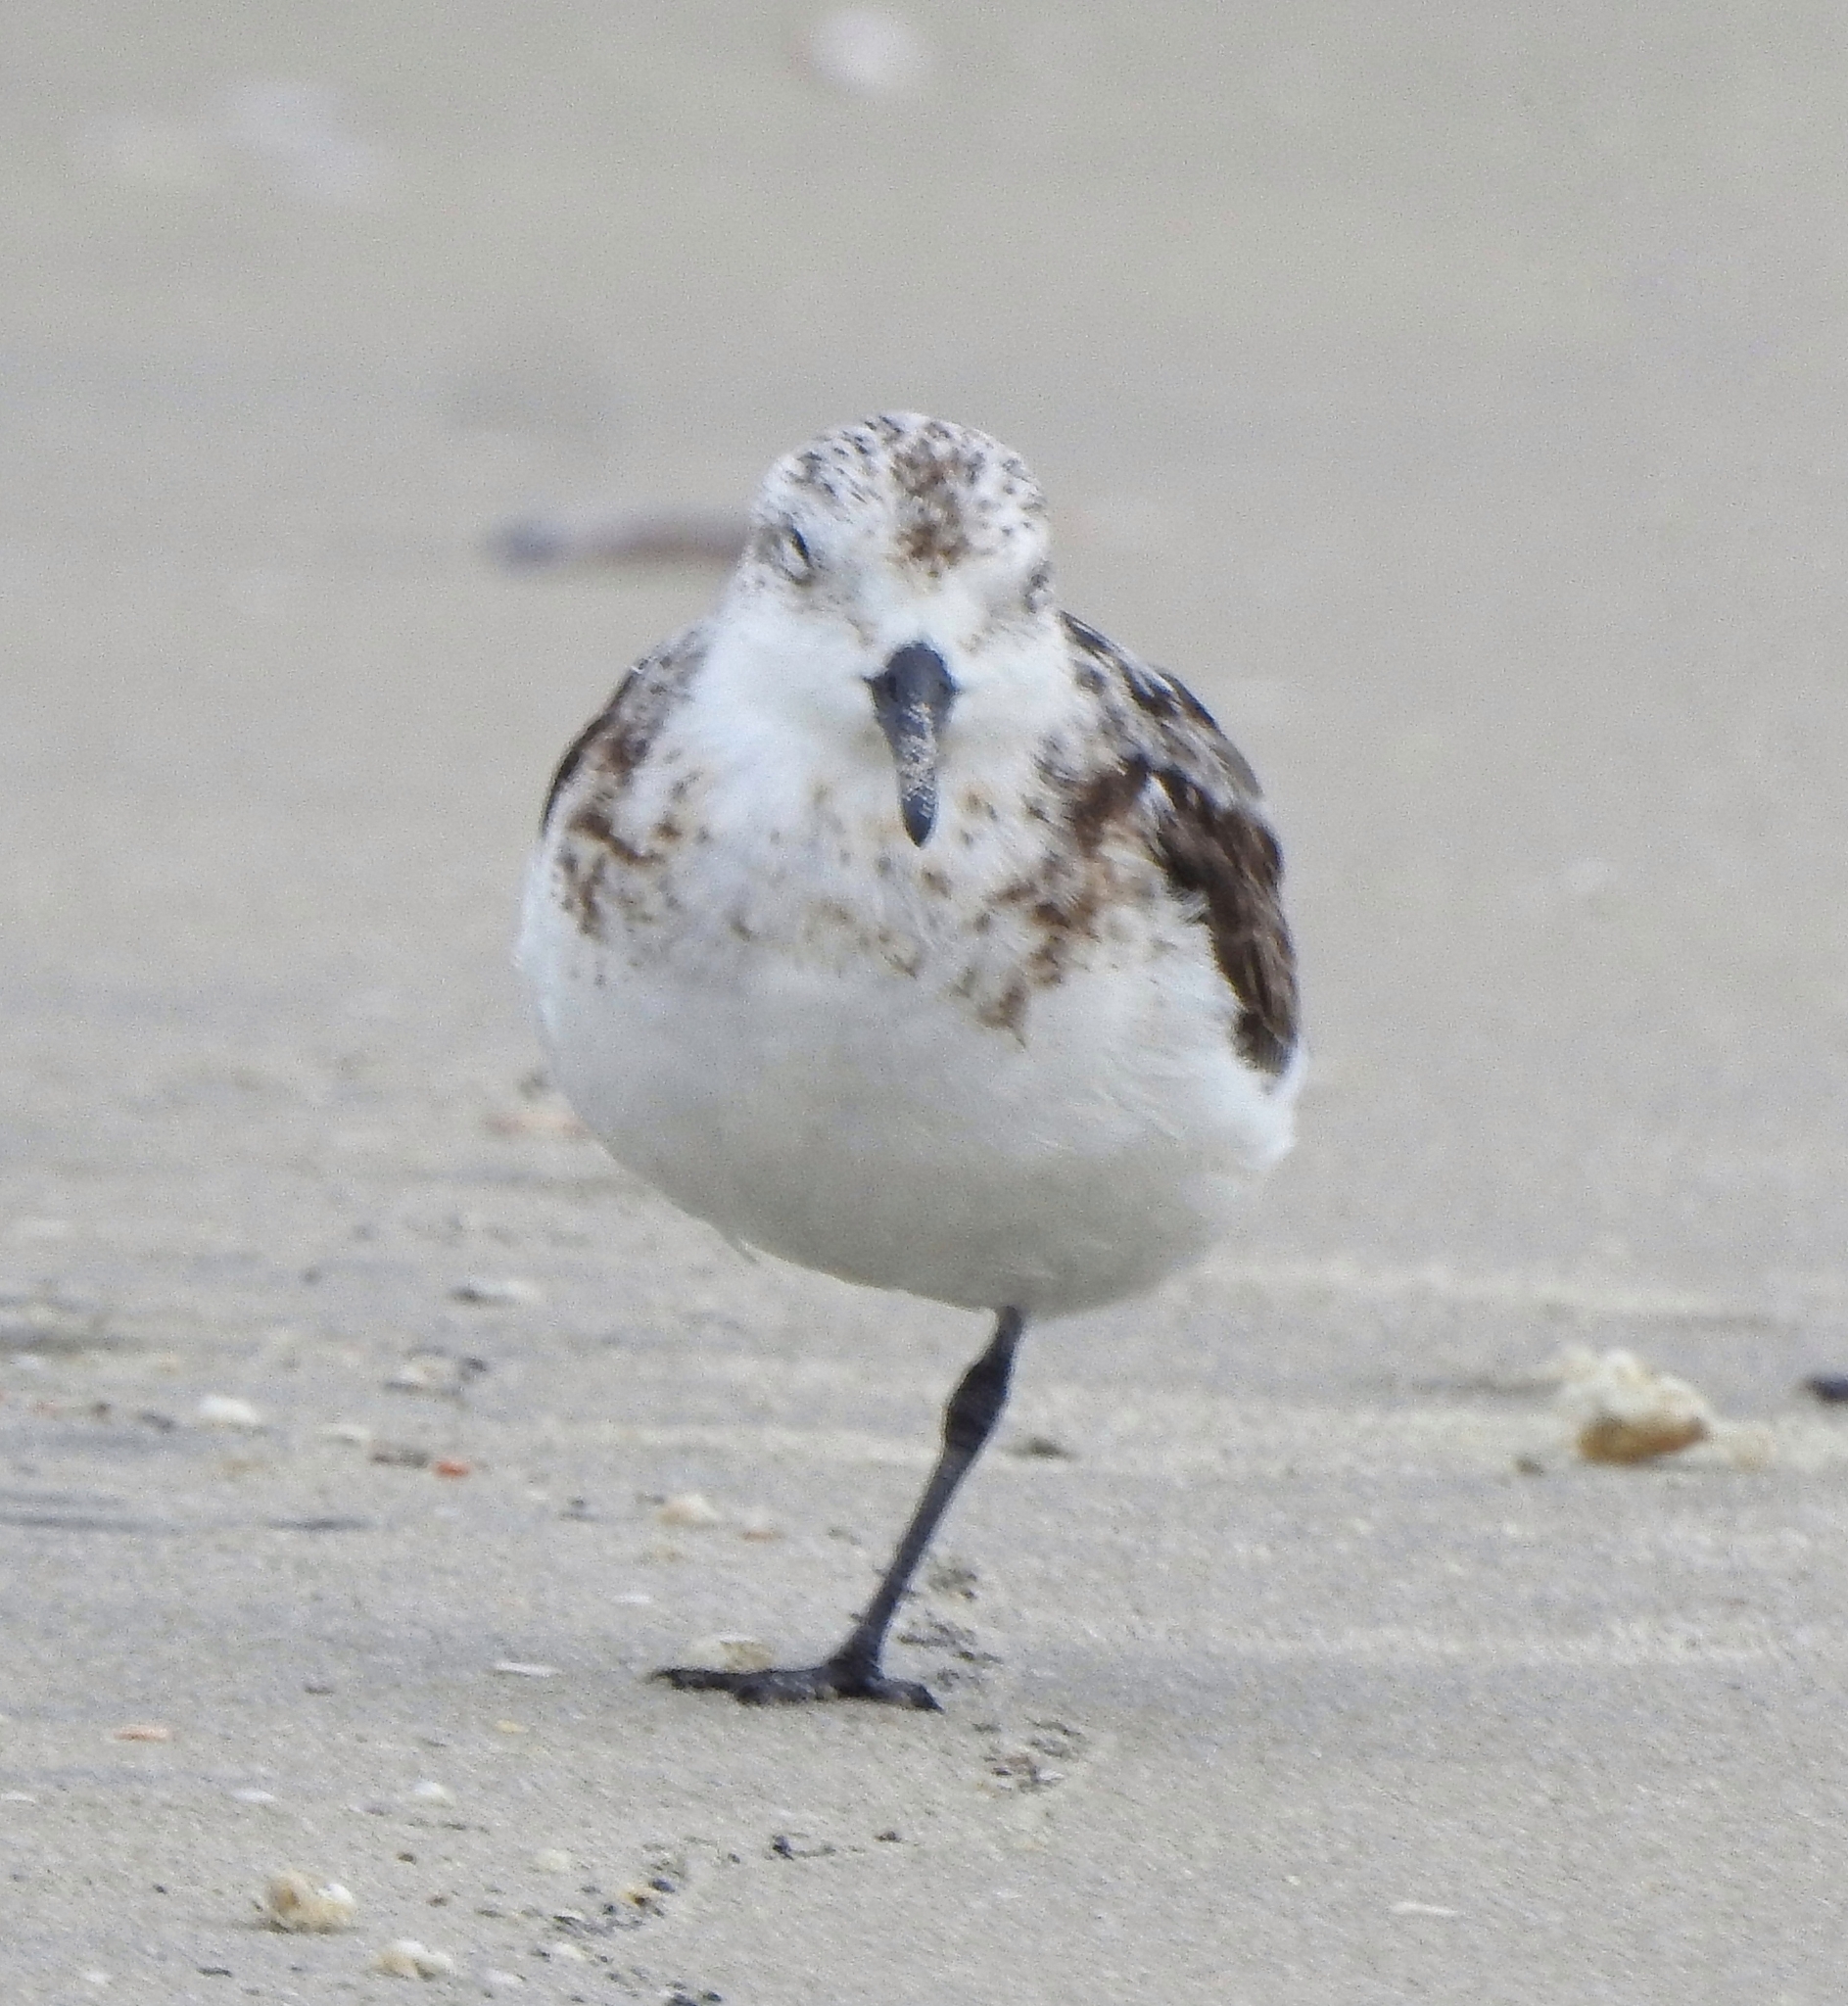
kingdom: Animalia
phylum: Chordata
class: Aves
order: Charadriiformes
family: Scolopacidae
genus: Calidris
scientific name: Calidris alba
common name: Sanderling
